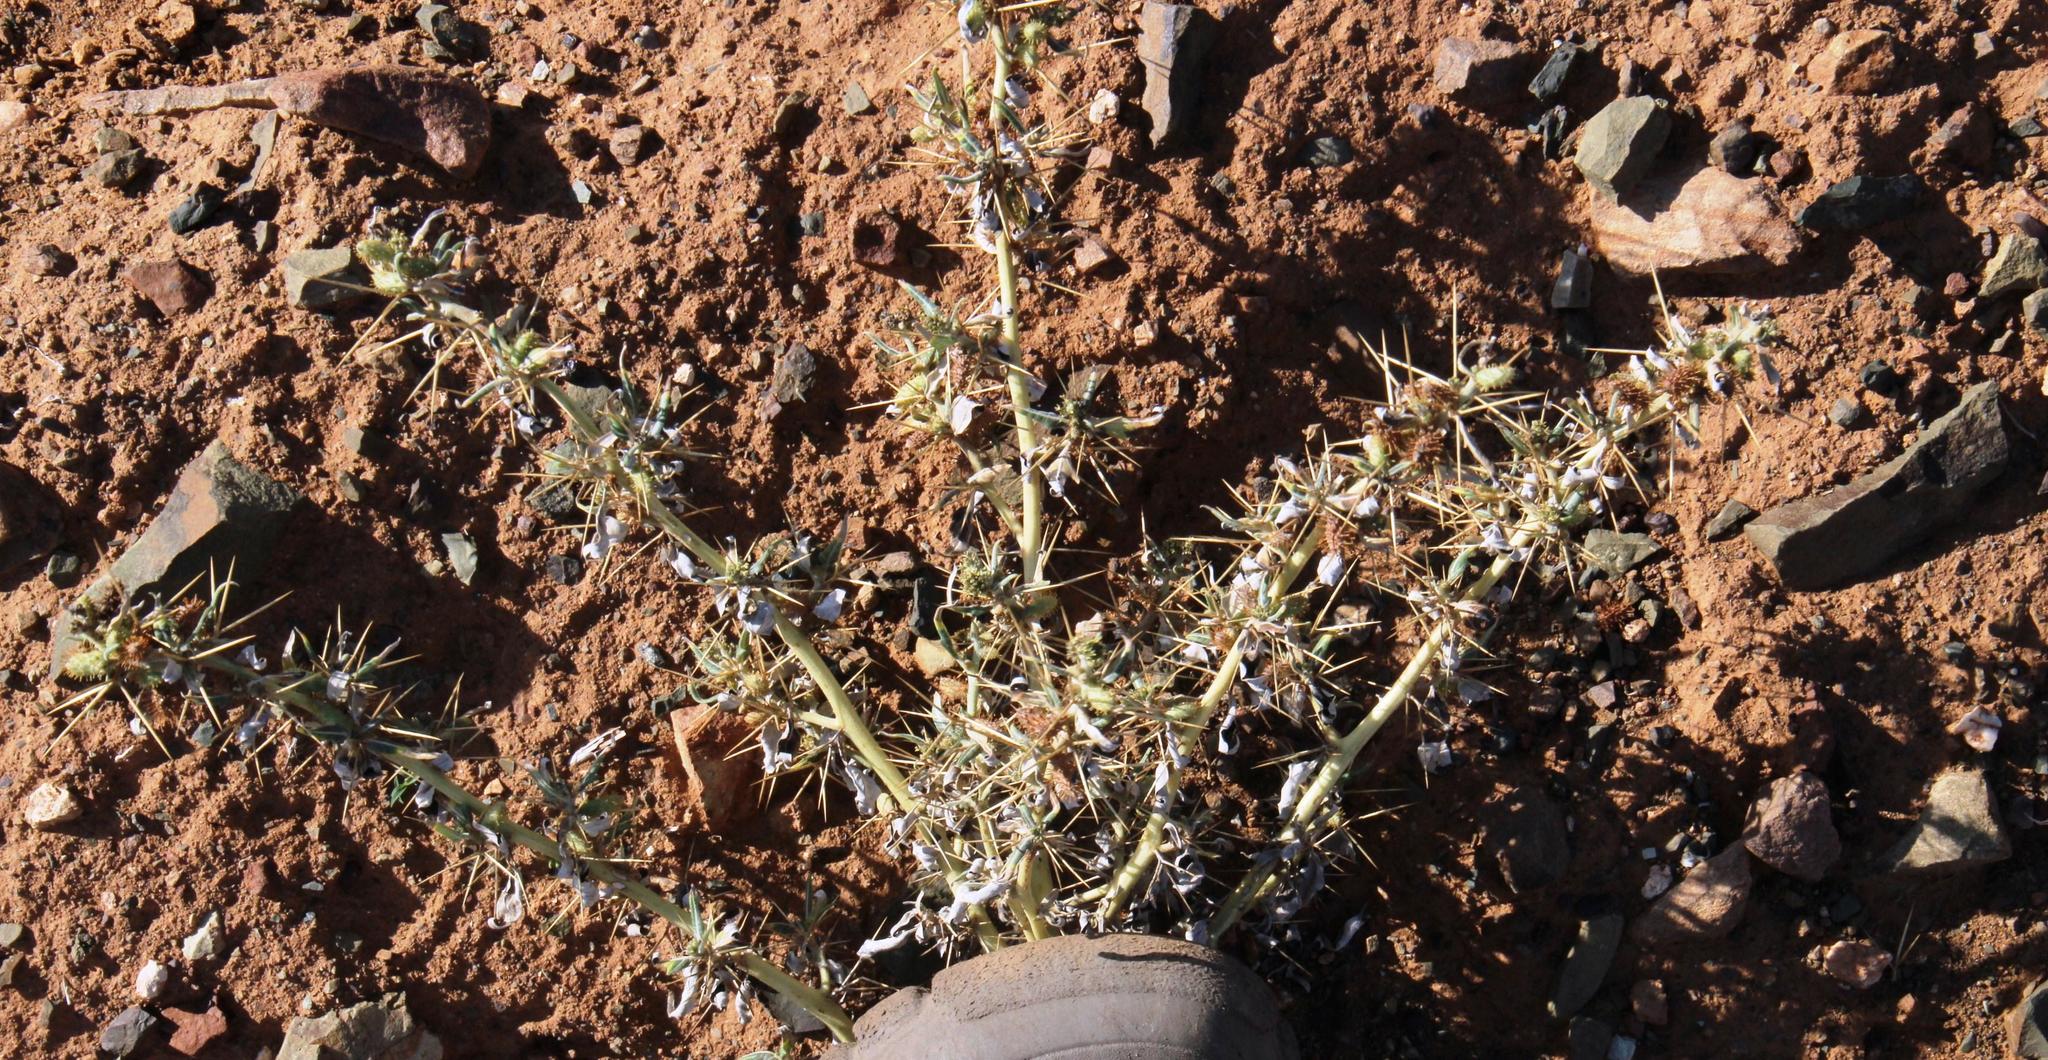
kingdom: Plantae
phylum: Tracheophyta
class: Magnoliopsida
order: Asterales
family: Asteraceae
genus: Xanthium
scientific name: Xanthium spinosum
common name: Spiny cocklebur
